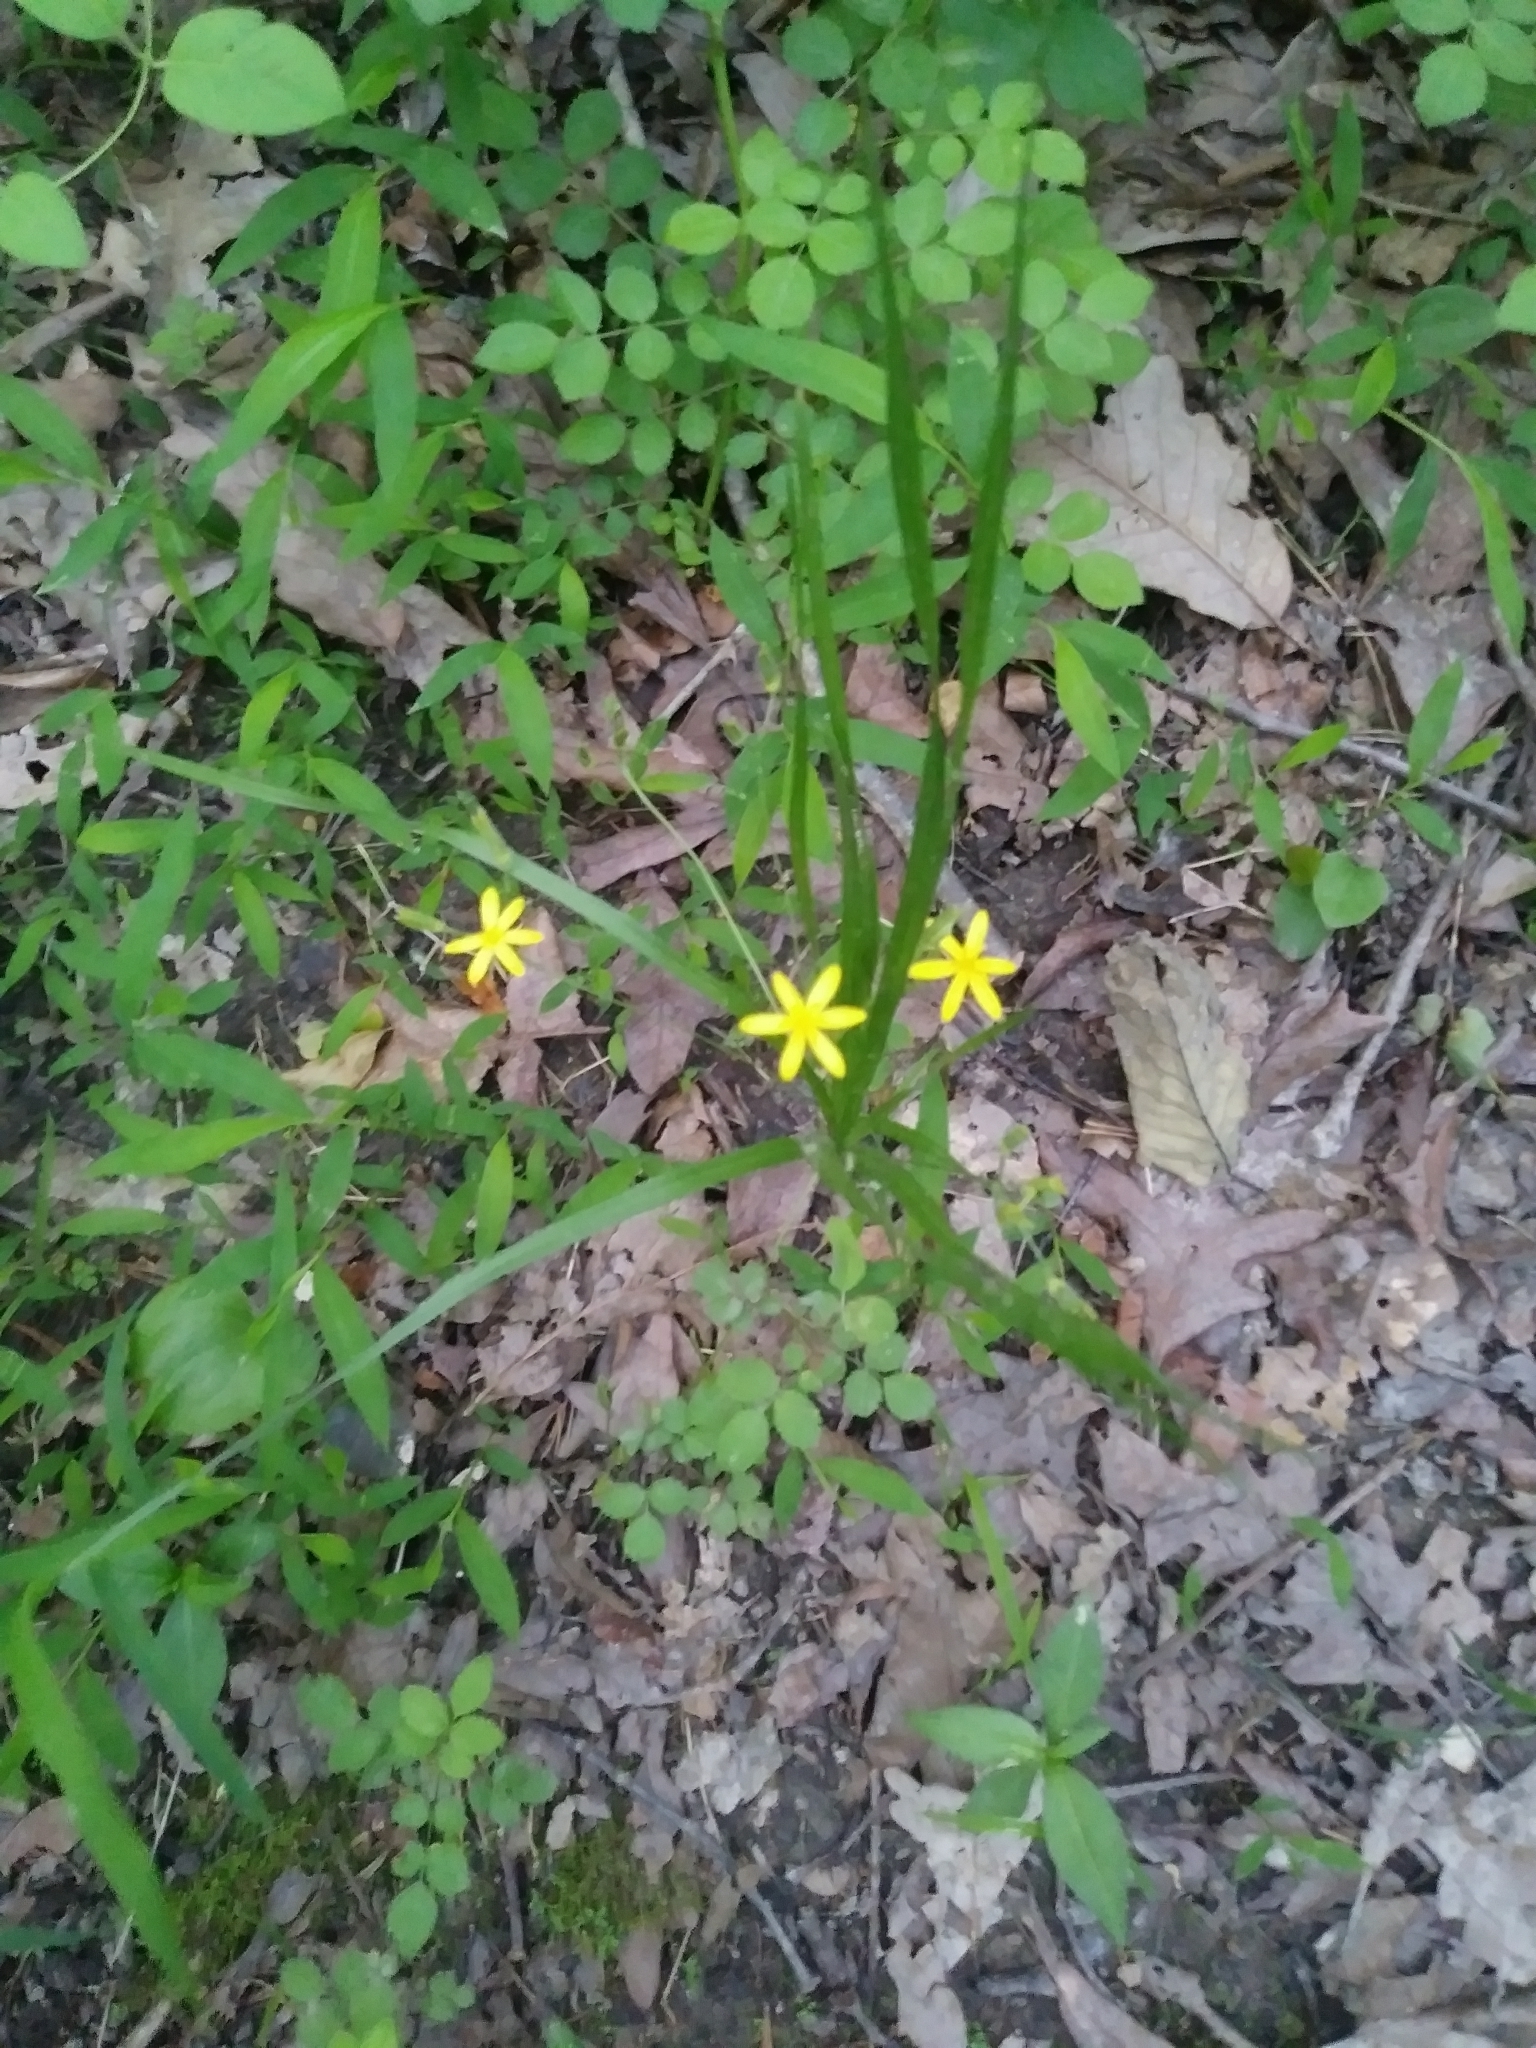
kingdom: Plantae
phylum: Tracheophyta
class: Liliopsida
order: Asparagales
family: Hypoxidaceae
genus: Hypoxis
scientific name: Hypoxis hirsuta
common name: Common goldstar
